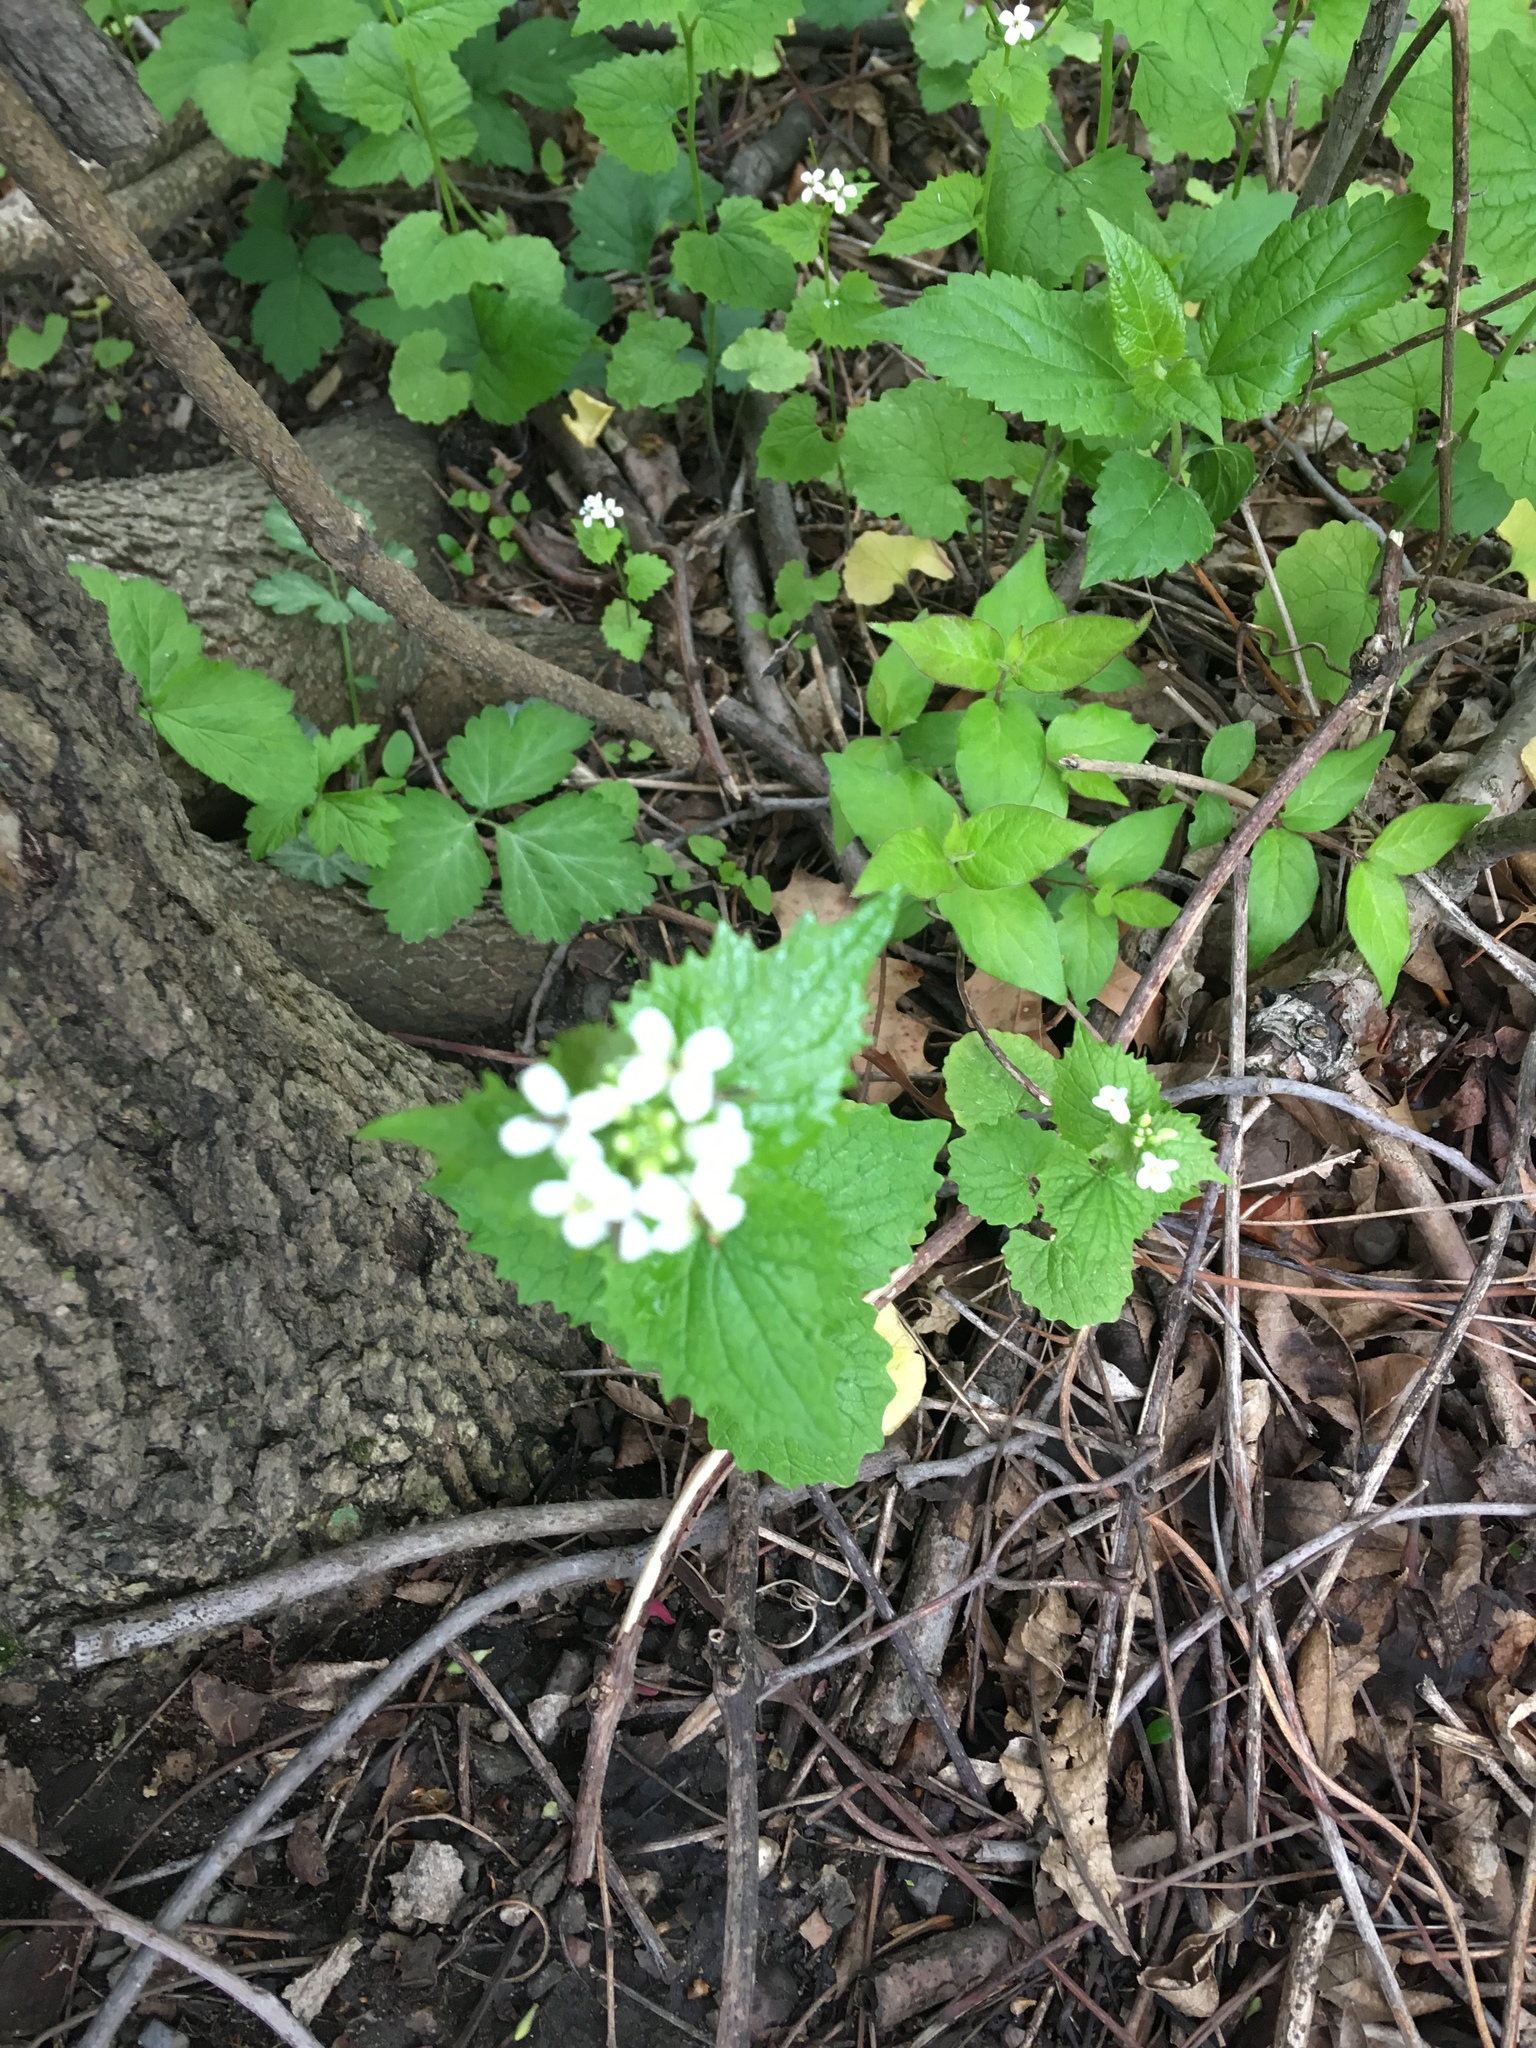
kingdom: Plantae
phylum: Tracheophyta
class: Magnoliopsida
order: Brassicales
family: Brassicaceae
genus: Alliaria
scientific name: Alliaria petiolata
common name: Garlic mustard
